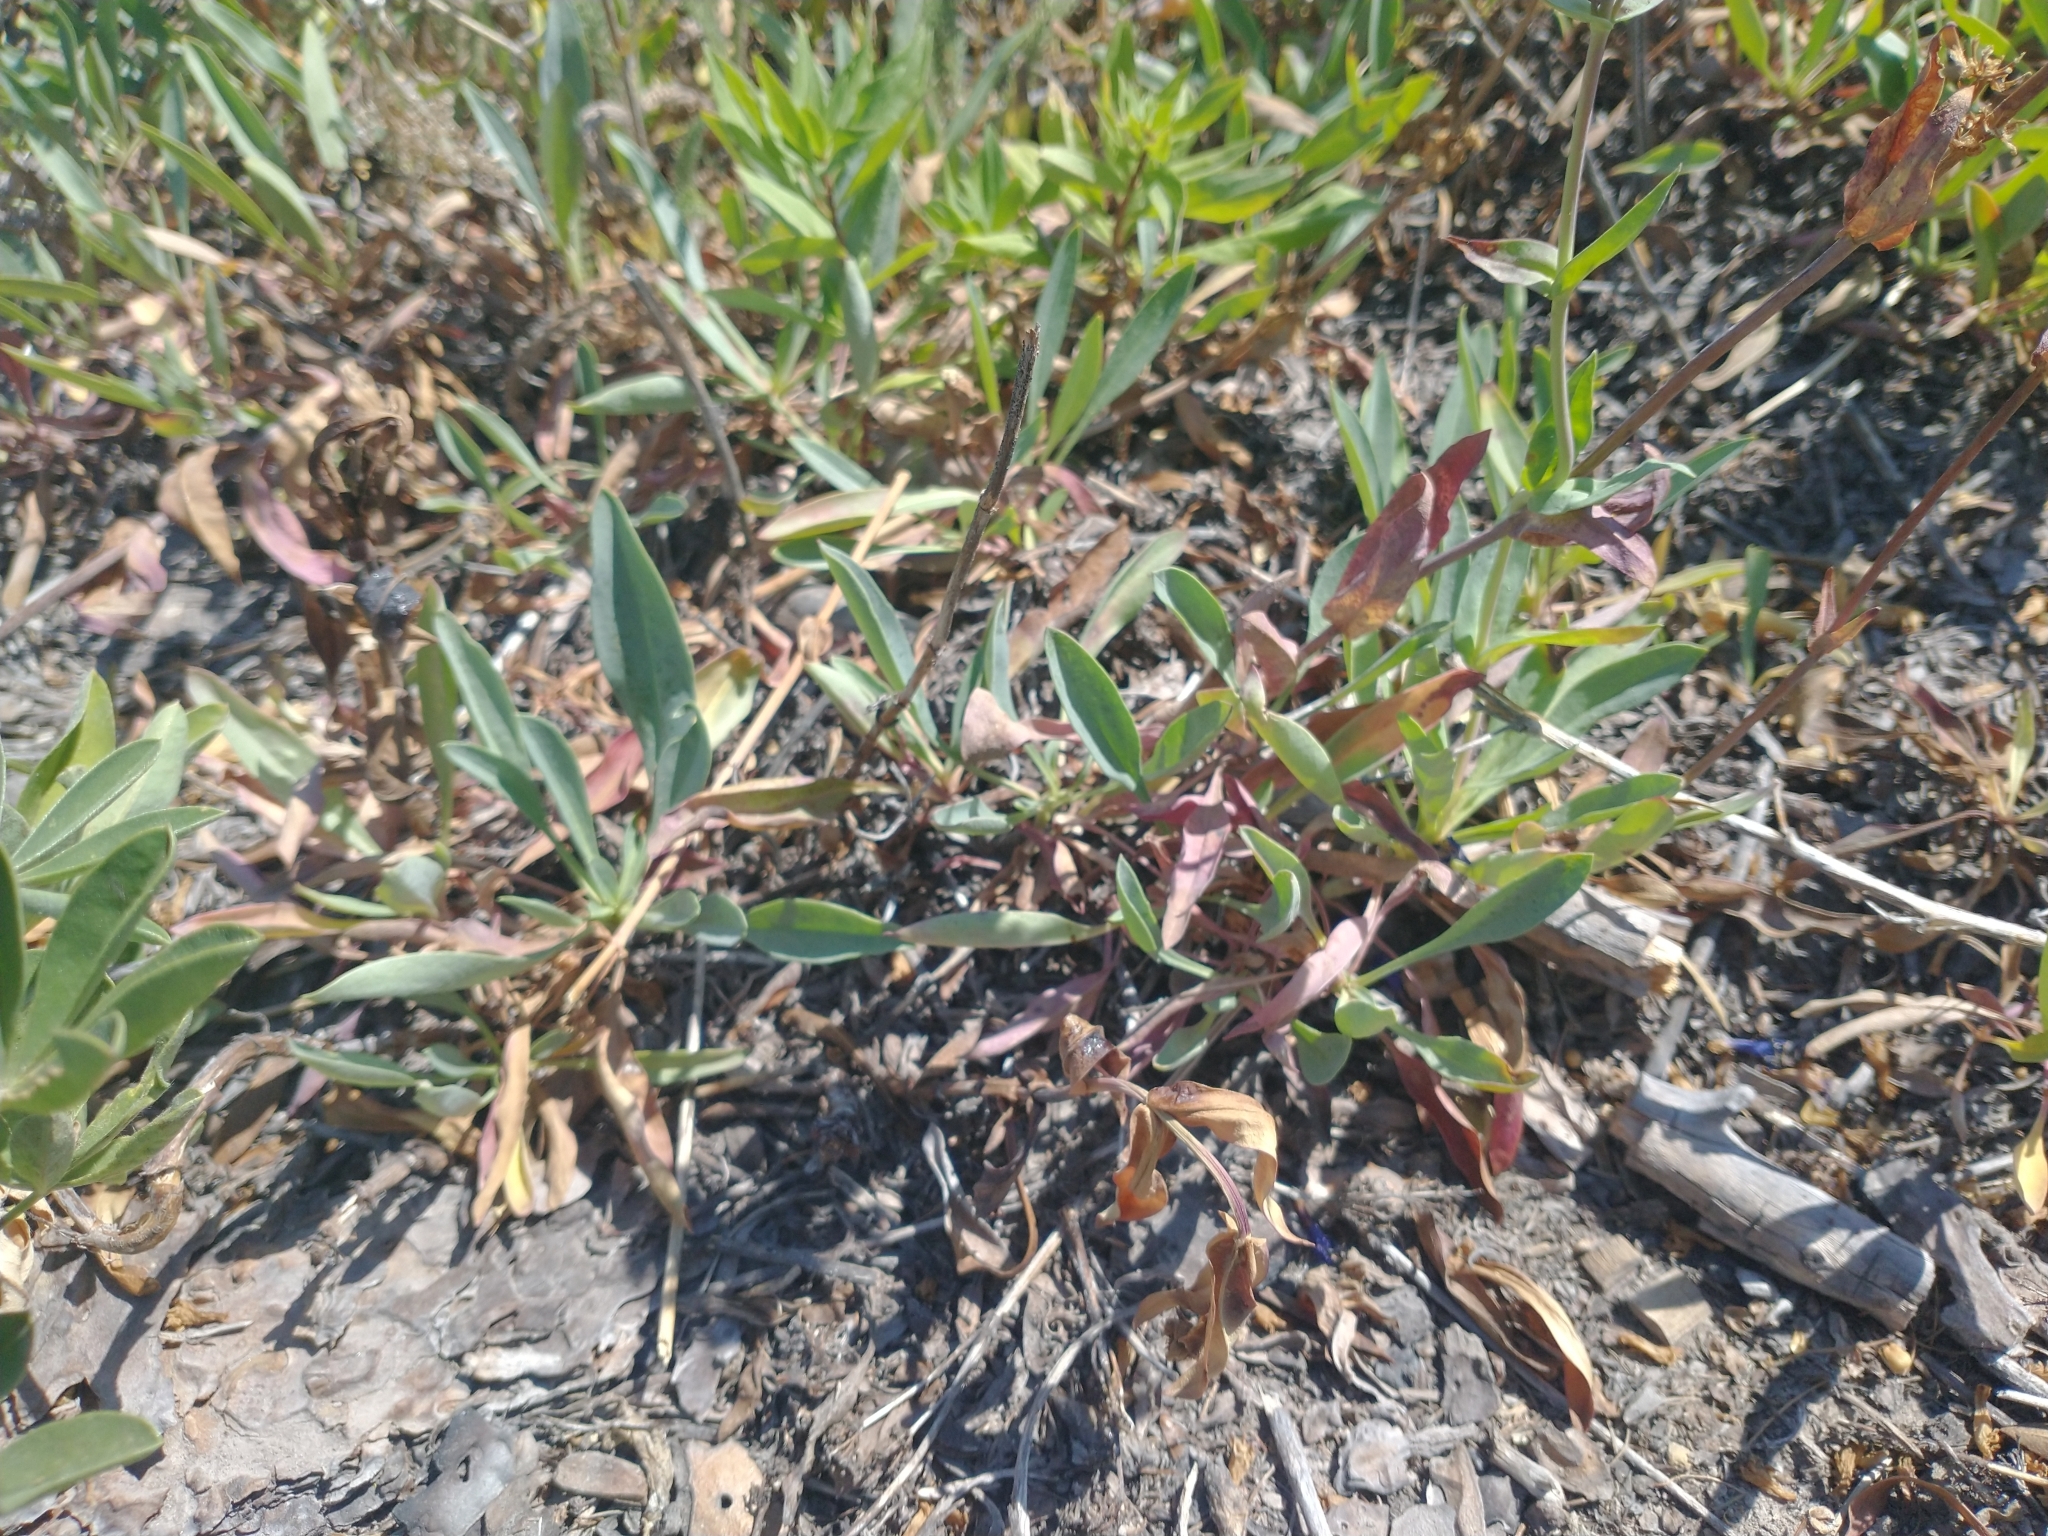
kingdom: Plantae
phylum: Tracheophyta
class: Magnoliopsida
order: Lamiales
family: Plantaginaceae
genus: Penstemon
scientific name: Penstemon euglaucus
